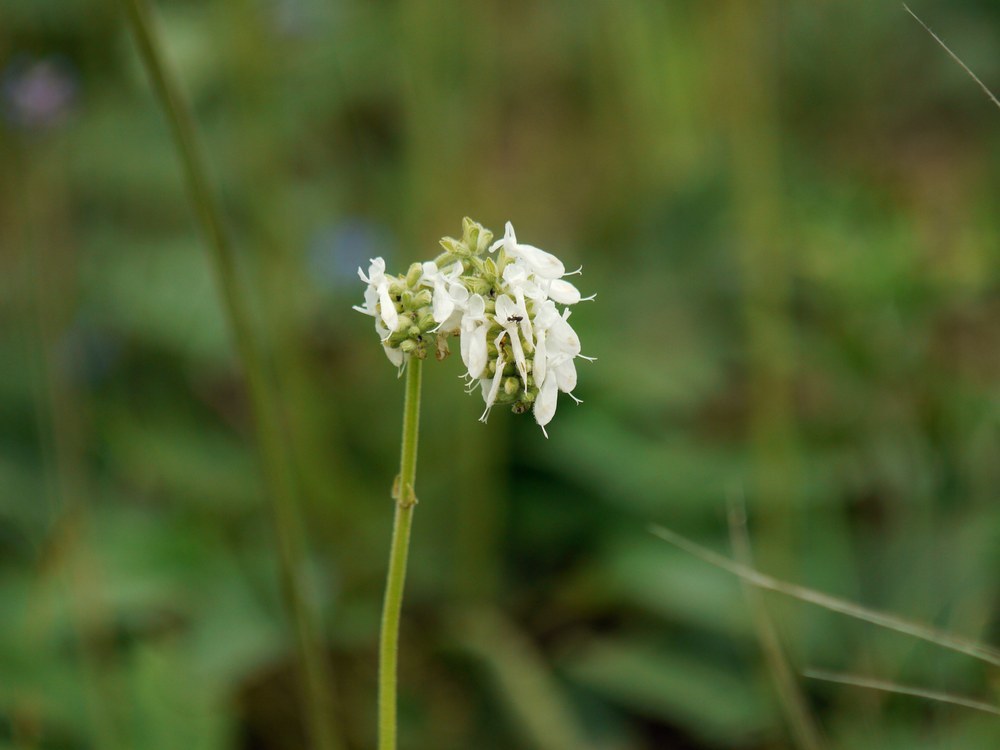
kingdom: Plantae
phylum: Tracheophyta
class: Magnoliopsida
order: Lamiales
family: Lamiaceae
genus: Salvia
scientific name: Salvia nutans
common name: Nodding sage
